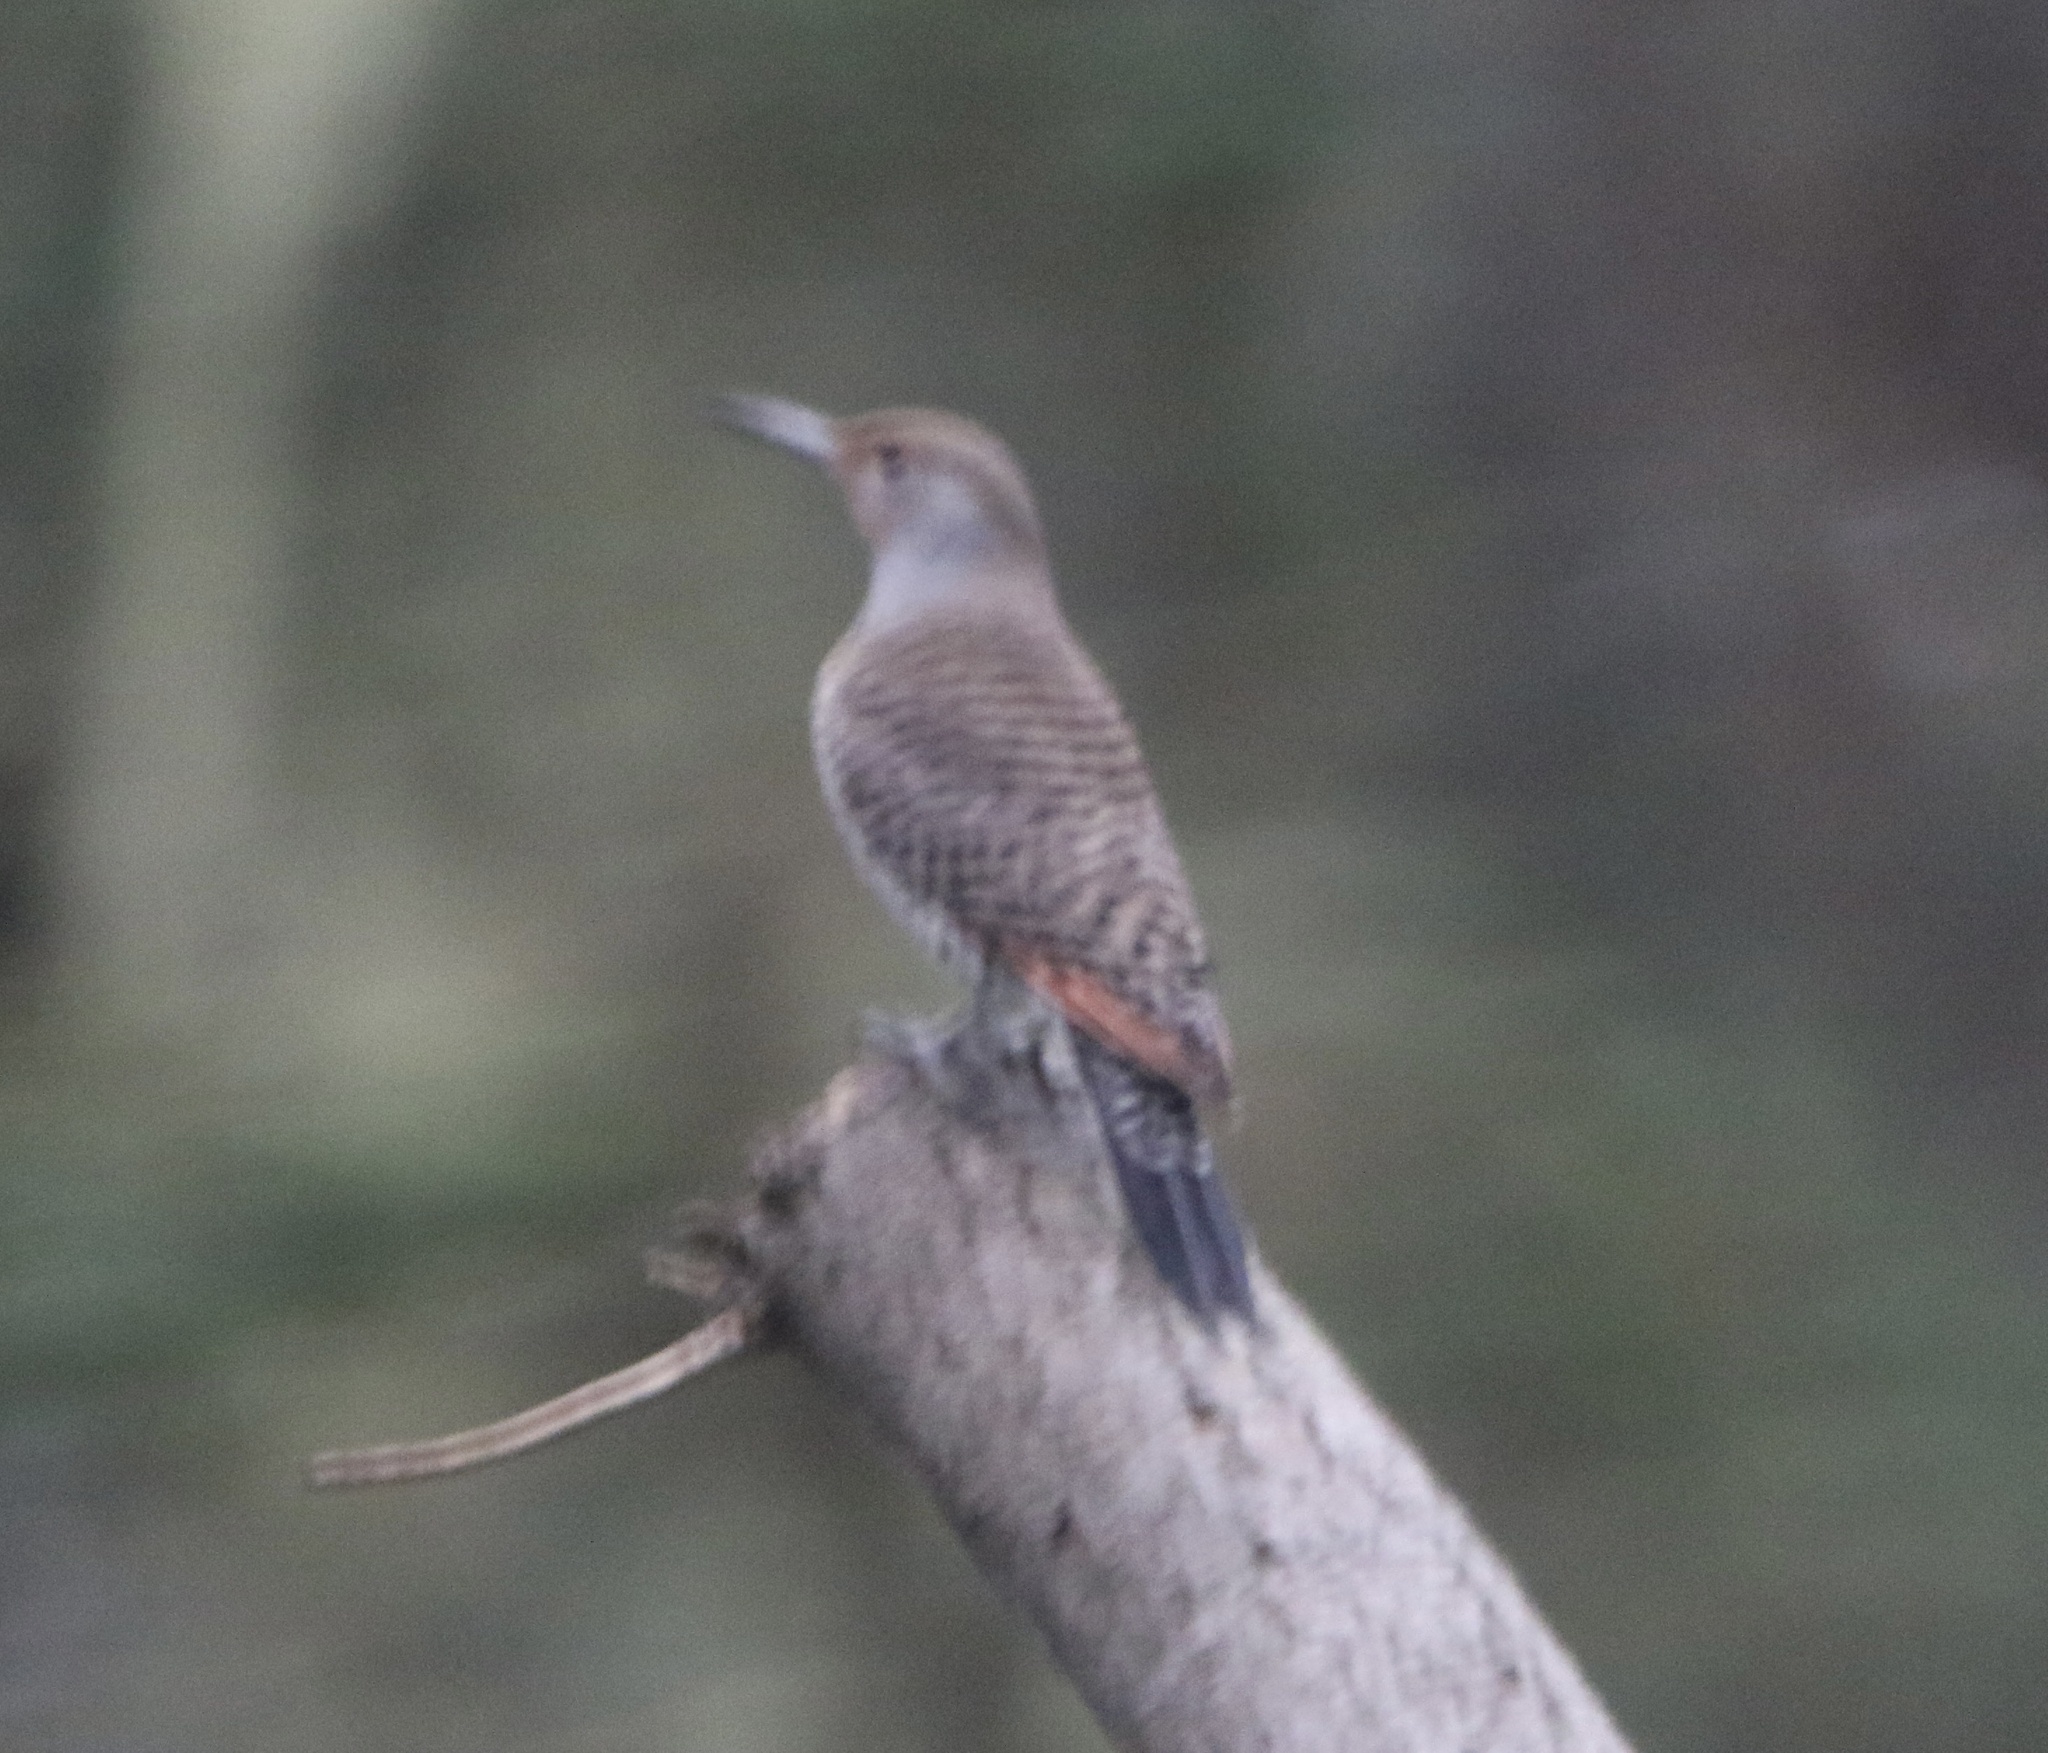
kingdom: Animalia
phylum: Chordata
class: Aves
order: Piciformes
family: Picidae
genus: Colaptes
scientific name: Colaptes auratus
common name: Northern flicker
